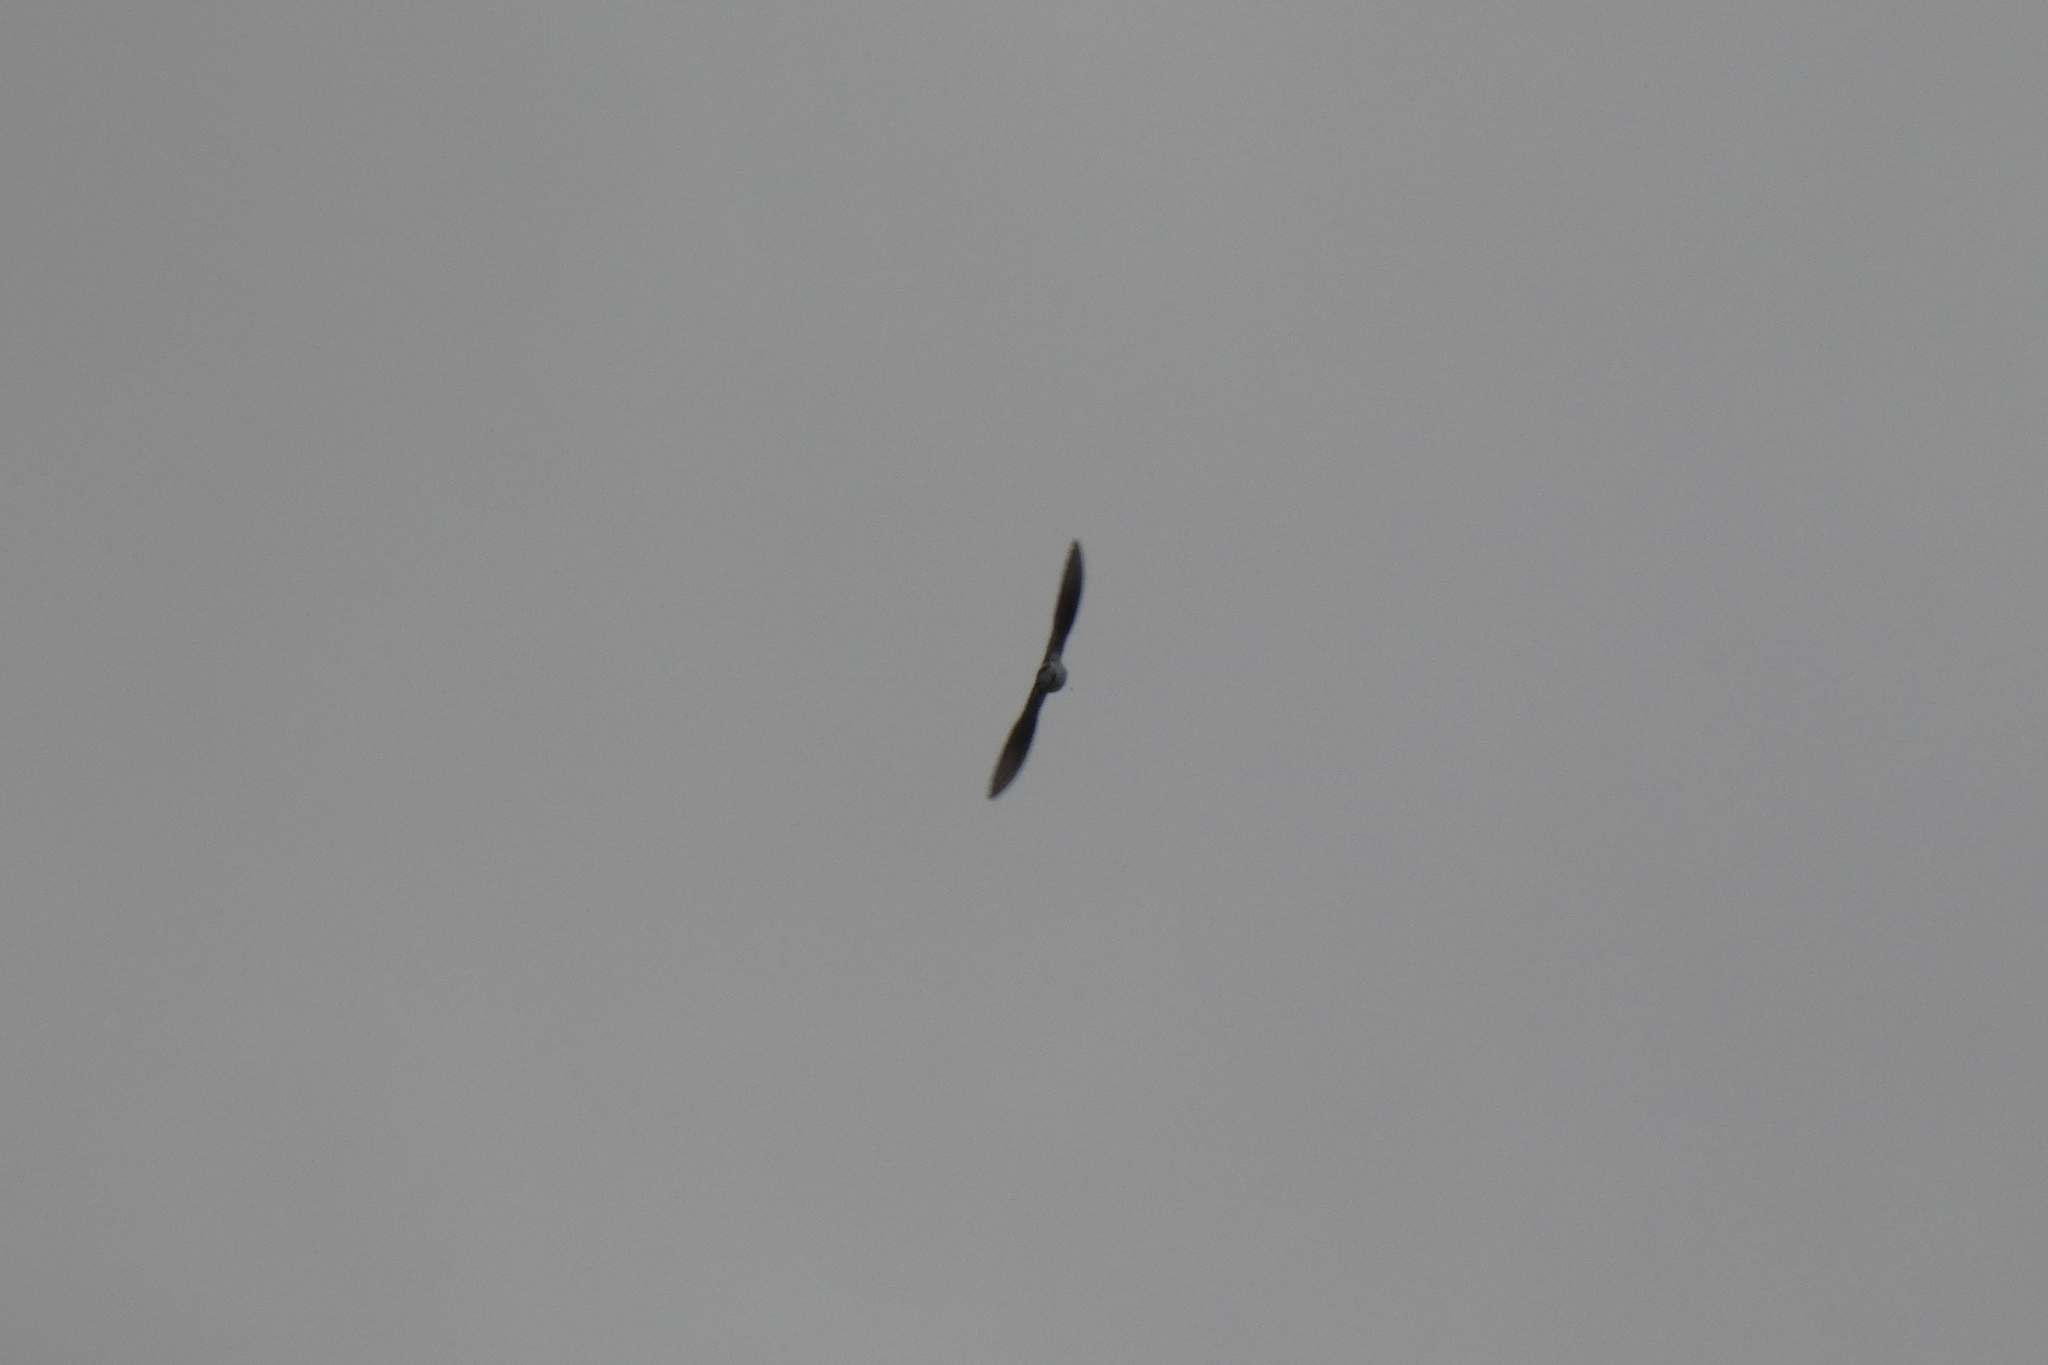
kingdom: Animalia
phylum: Chordata
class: Aves
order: Passeriformes
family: Hirundinidae
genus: Tachycineta
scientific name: Tachycineta thalassina
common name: Violet-green swallow
